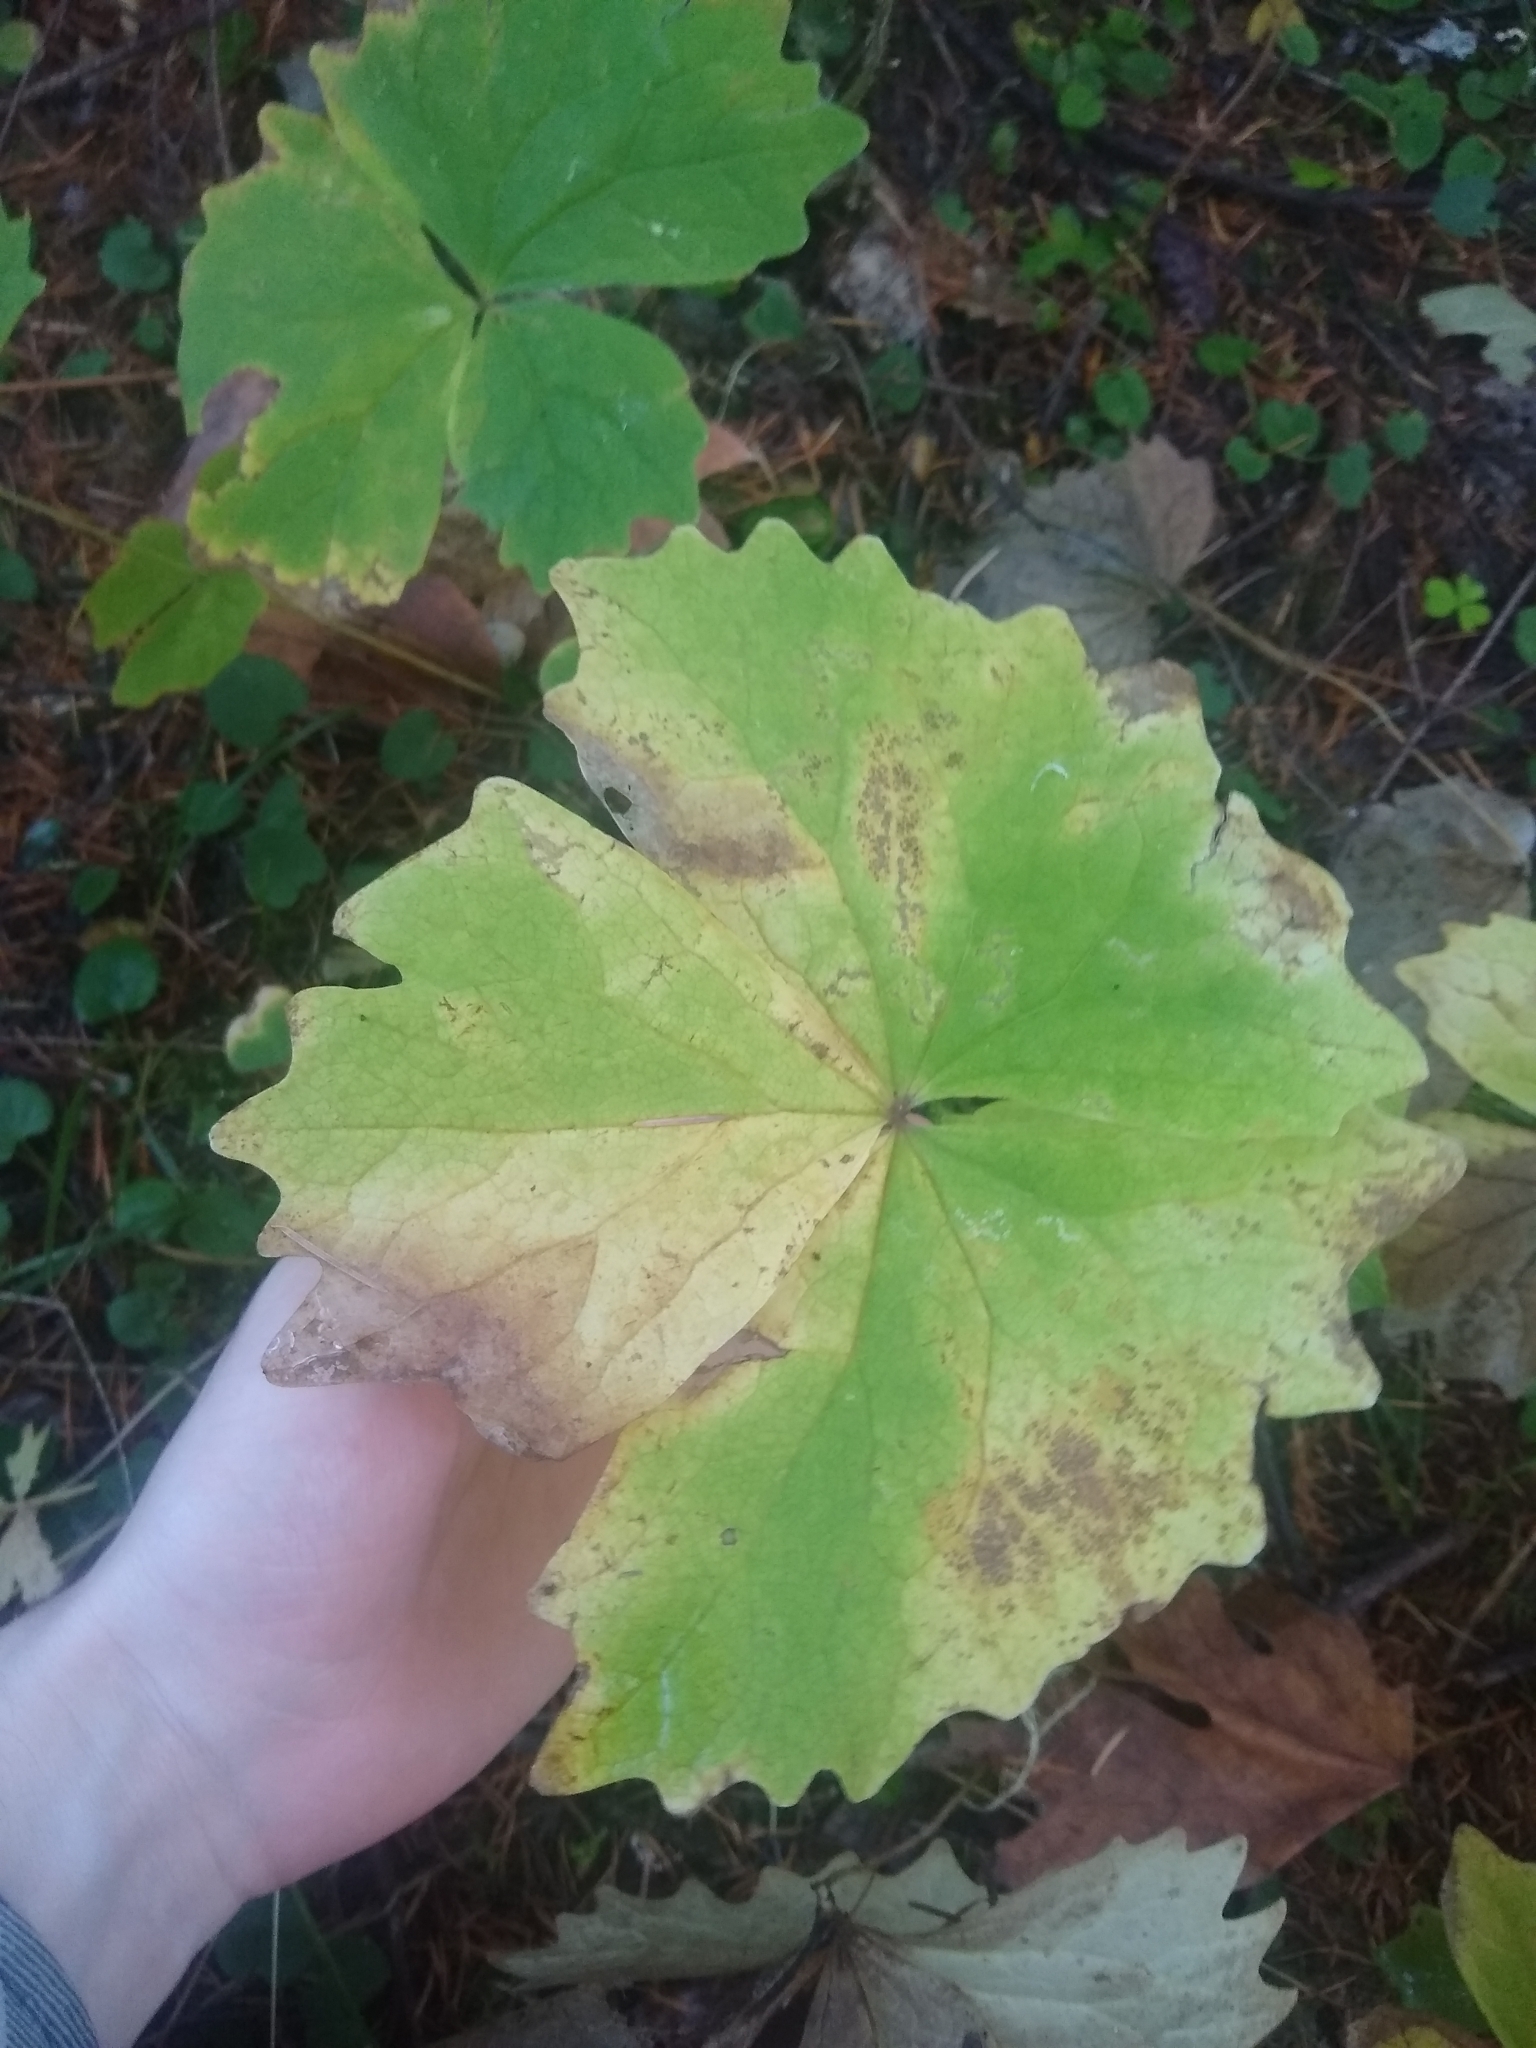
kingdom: Plantae
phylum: Tracheophyta
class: Magnoliopsida
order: Ranunculales
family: Berberidaceae
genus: Achlys
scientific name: Achlys californica
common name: California deer-foot
